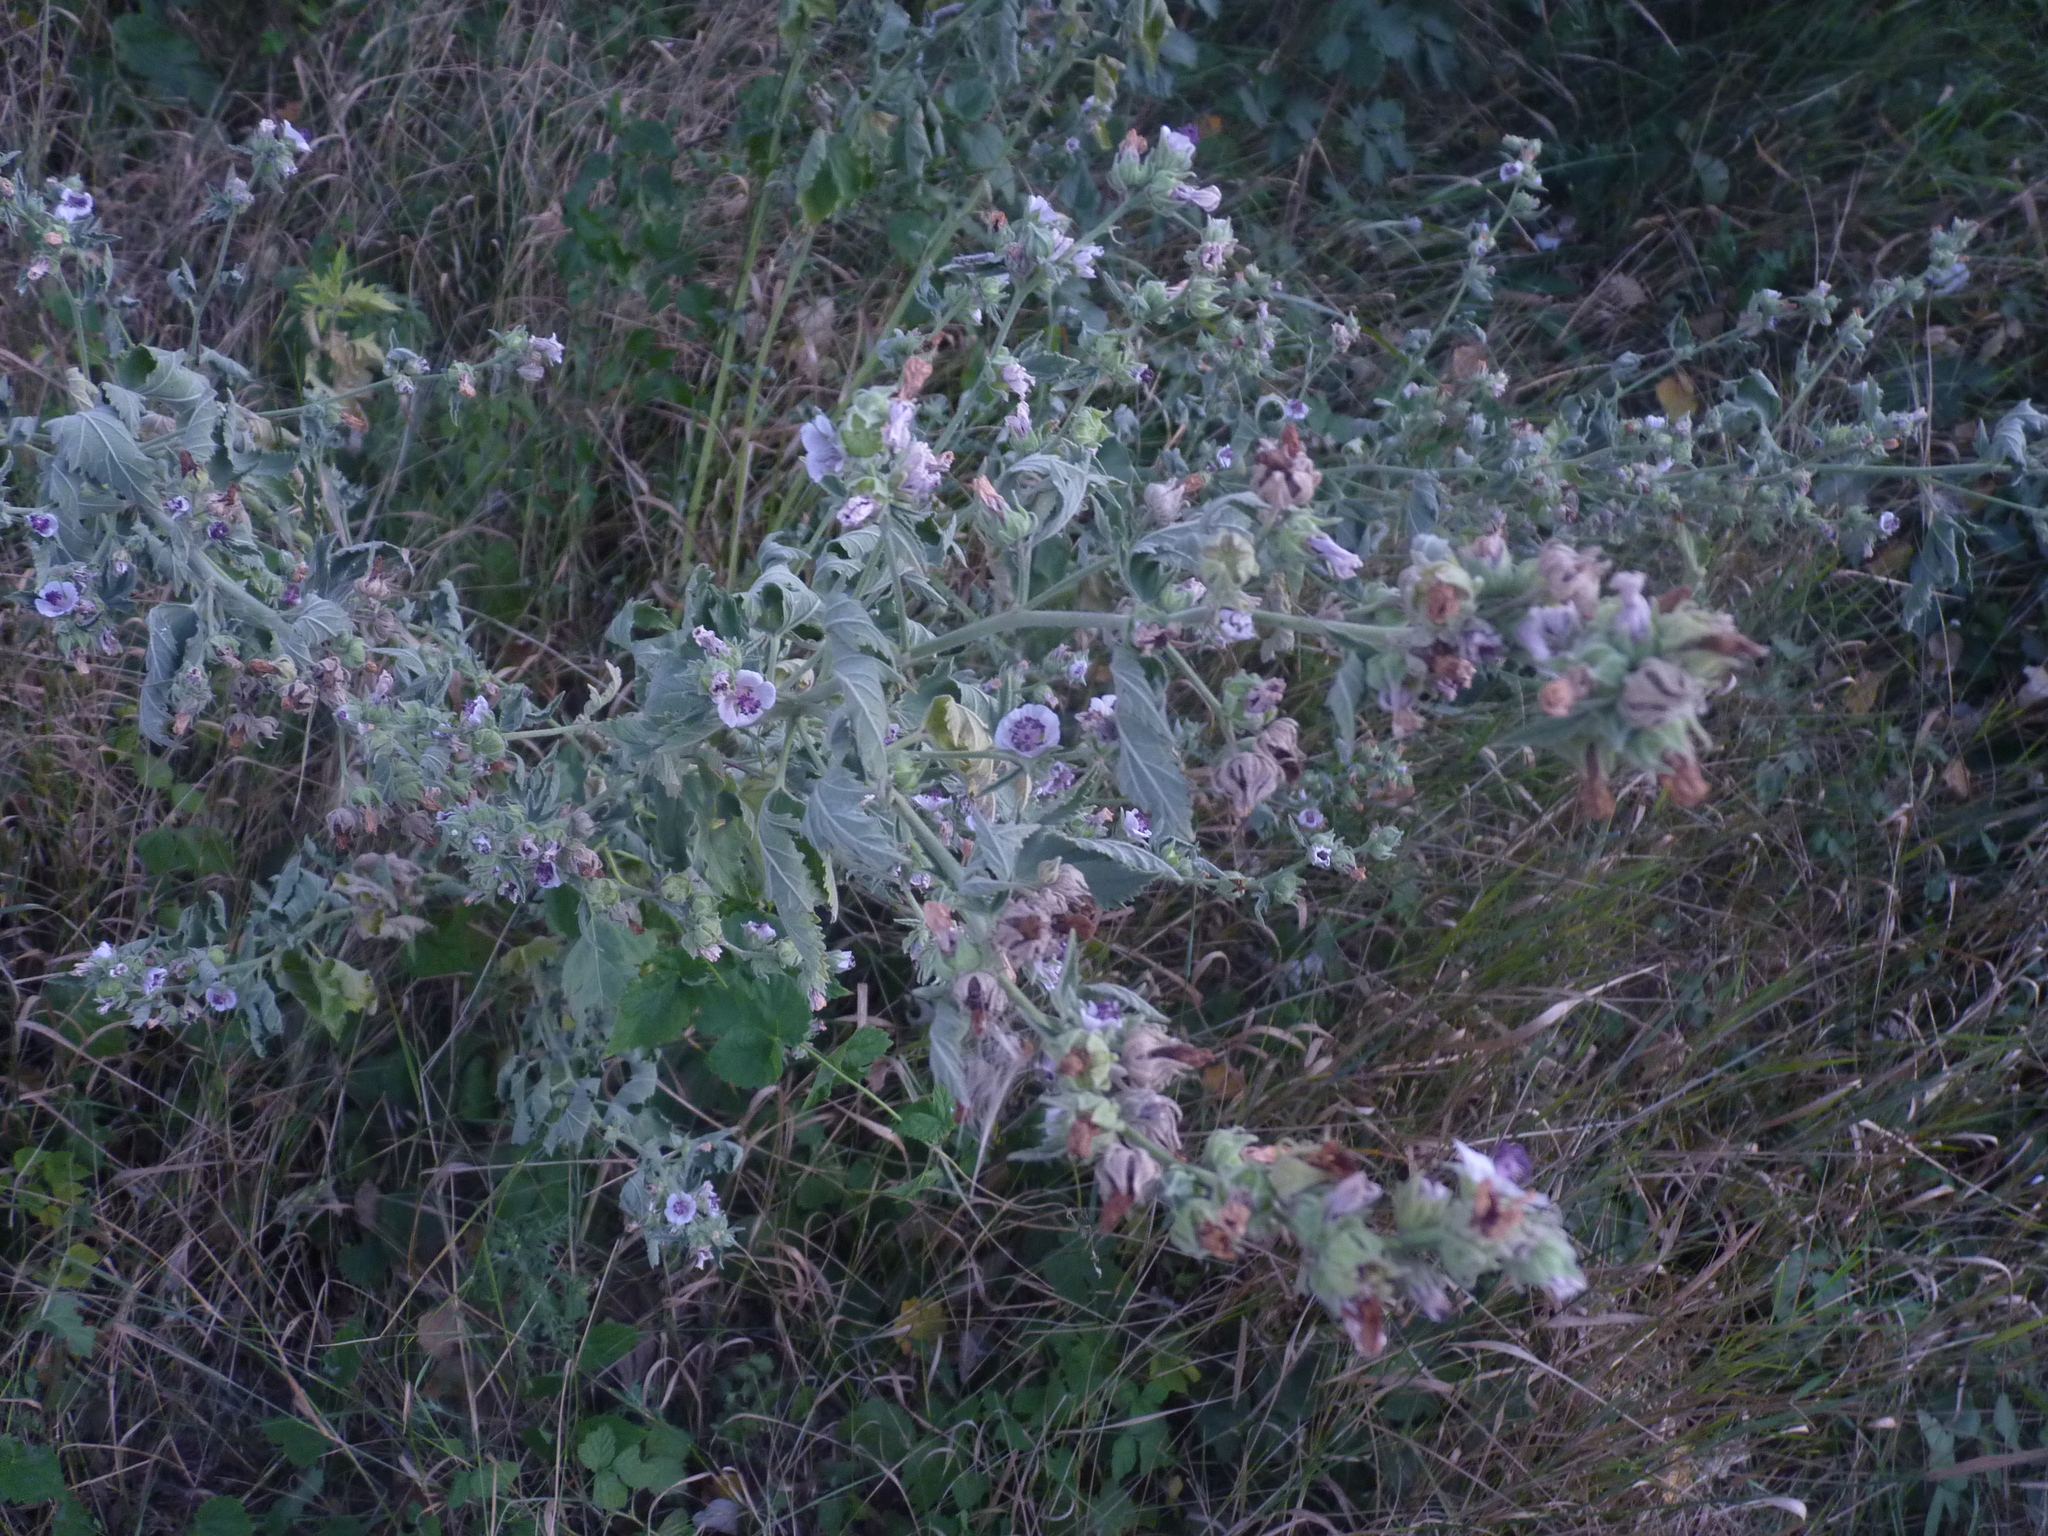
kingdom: Plantae
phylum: Tracheophyta
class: Magnoliopsida
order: Malvales
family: Malvaceae
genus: Althaea
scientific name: Althaea officinalis
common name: Marsh-mallow
